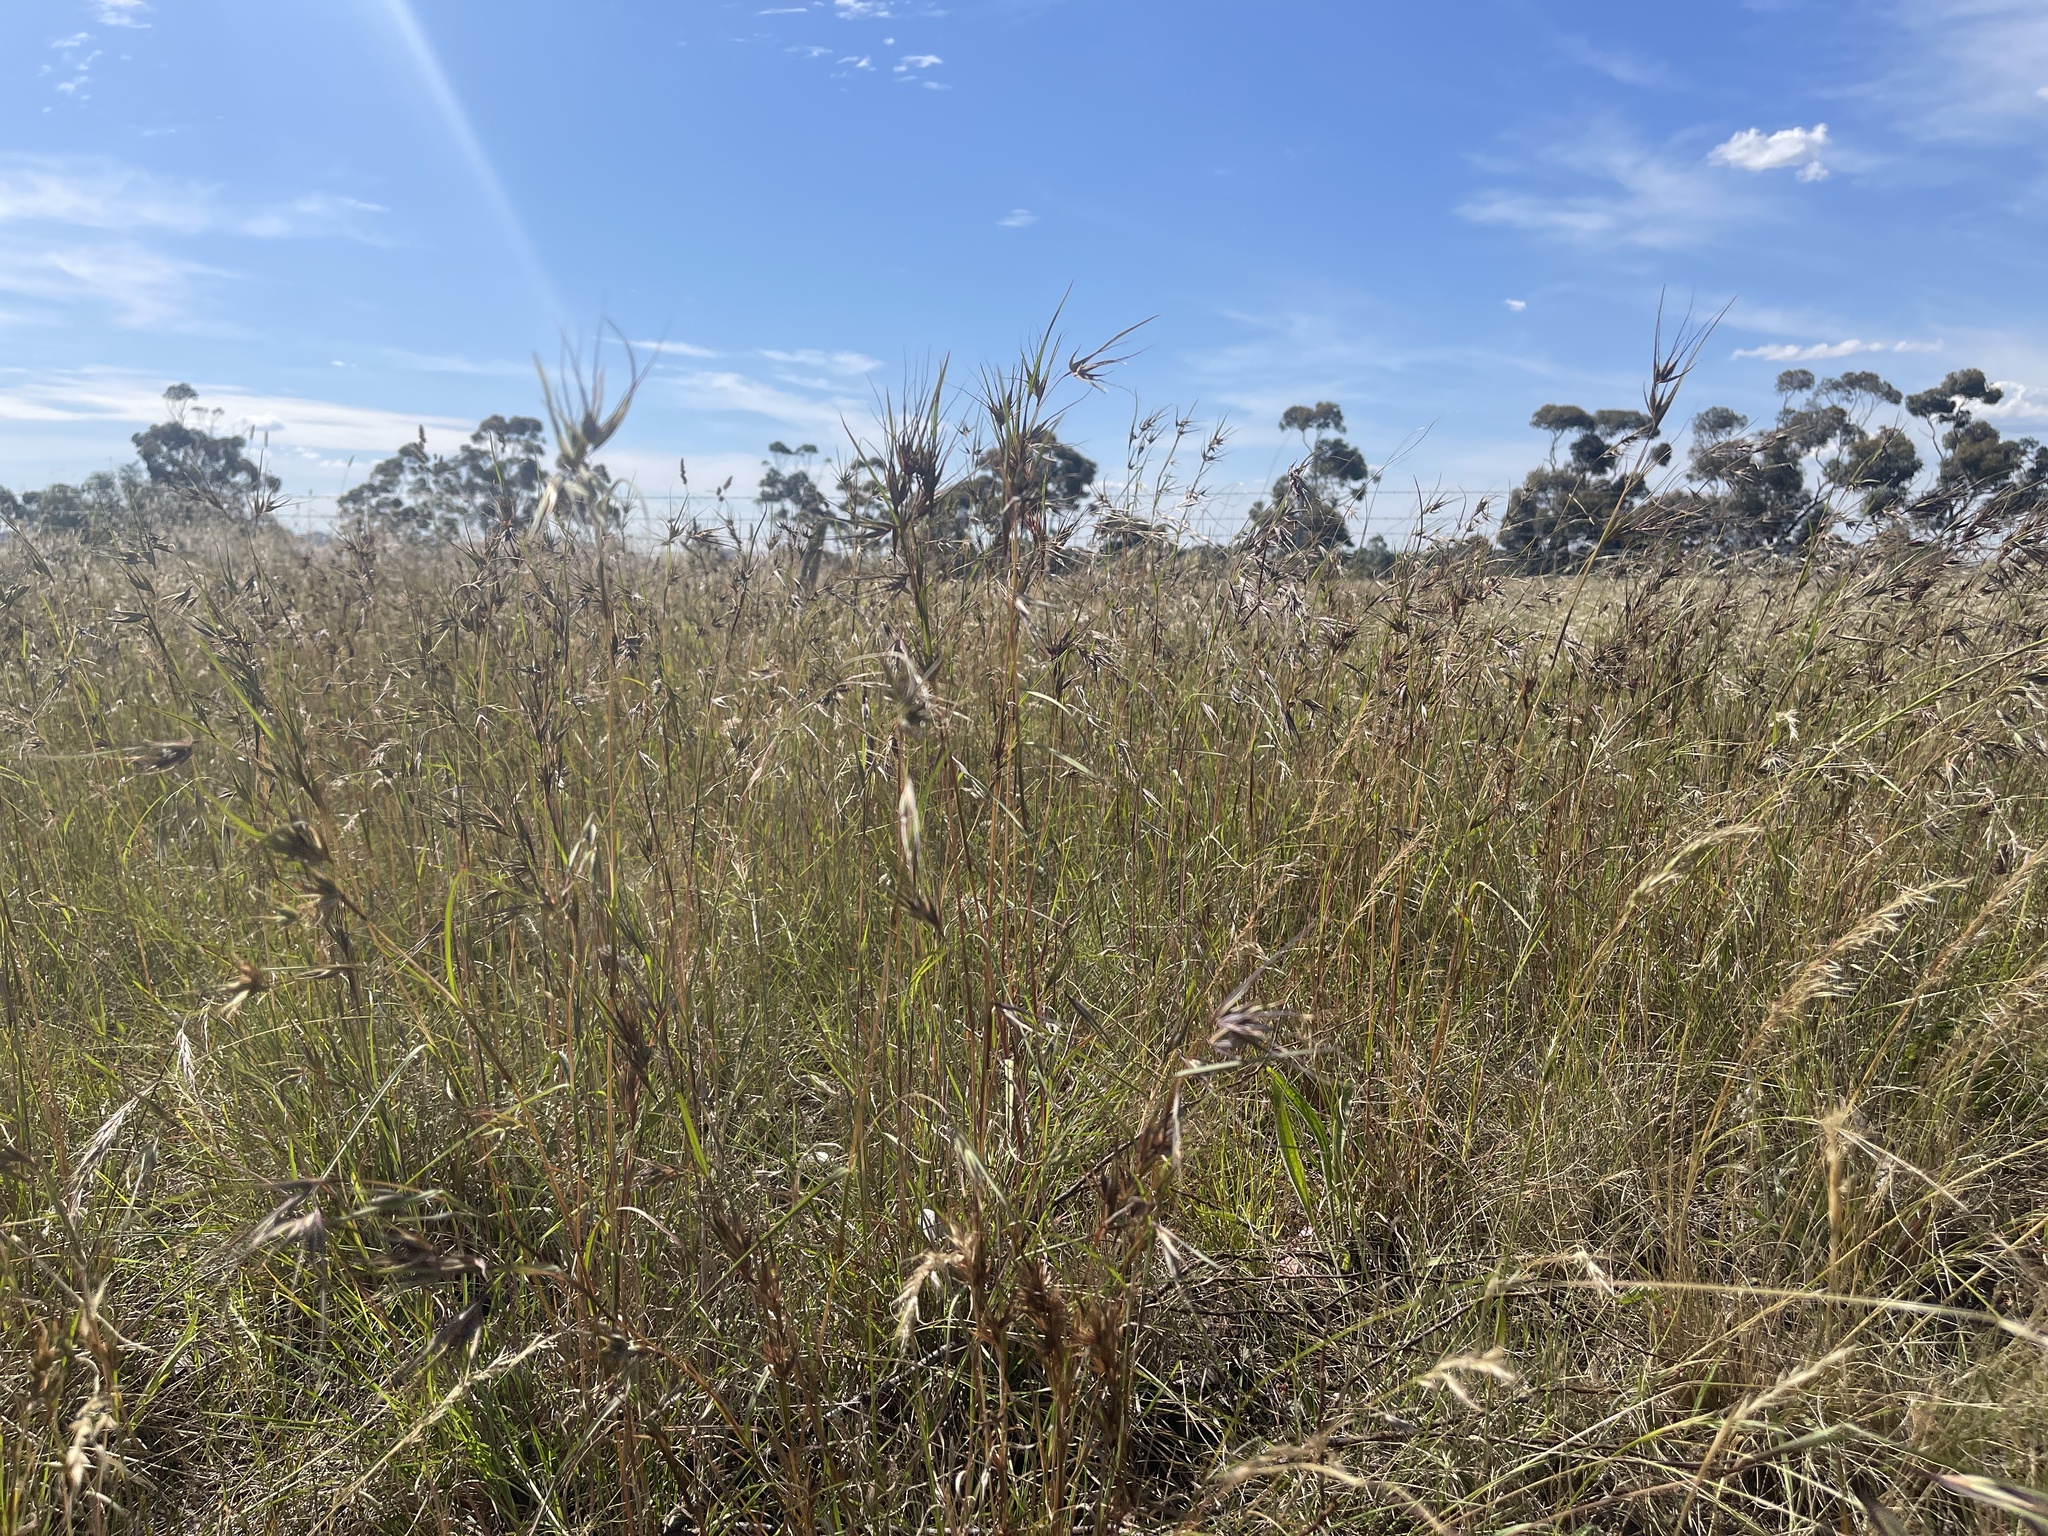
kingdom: Plantae
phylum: Tracheophyta
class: Liliopsida
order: Poales
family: Poaceae
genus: Themeda
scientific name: Themeda triandra
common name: Kangaroo grass
